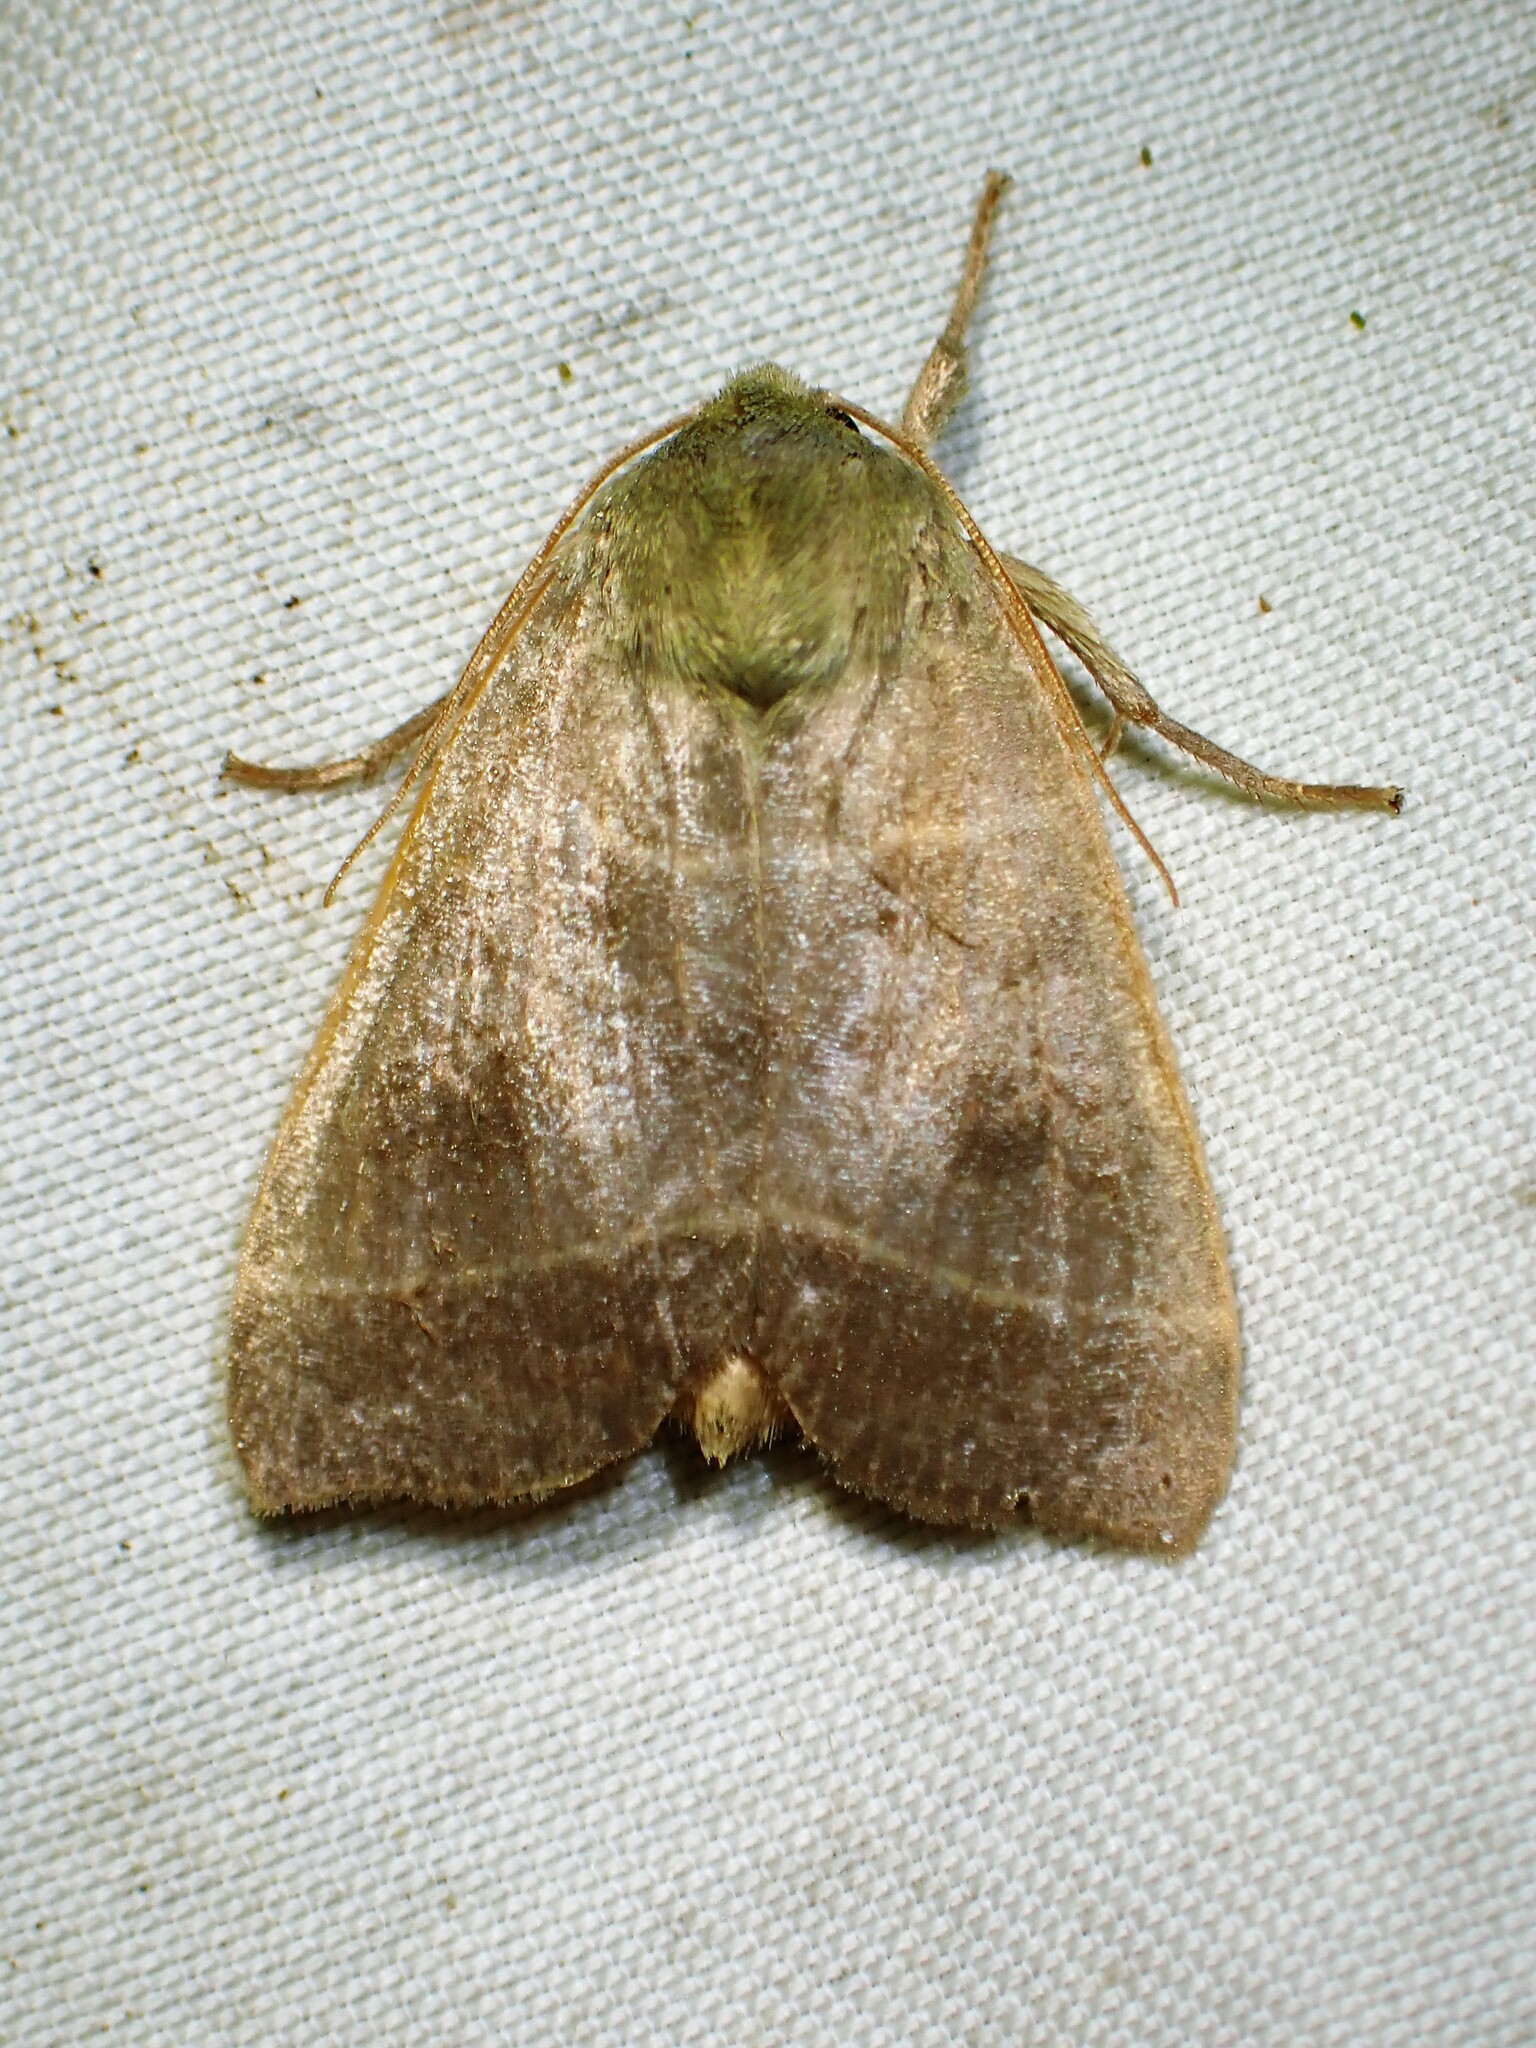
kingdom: Animalia
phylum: Arthropoda
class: Insecta
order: Lepidoptera
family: Noctuidae
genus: Ipimorpha
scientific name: Ipimorpha pleonectusa
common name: Even-lined sallow
